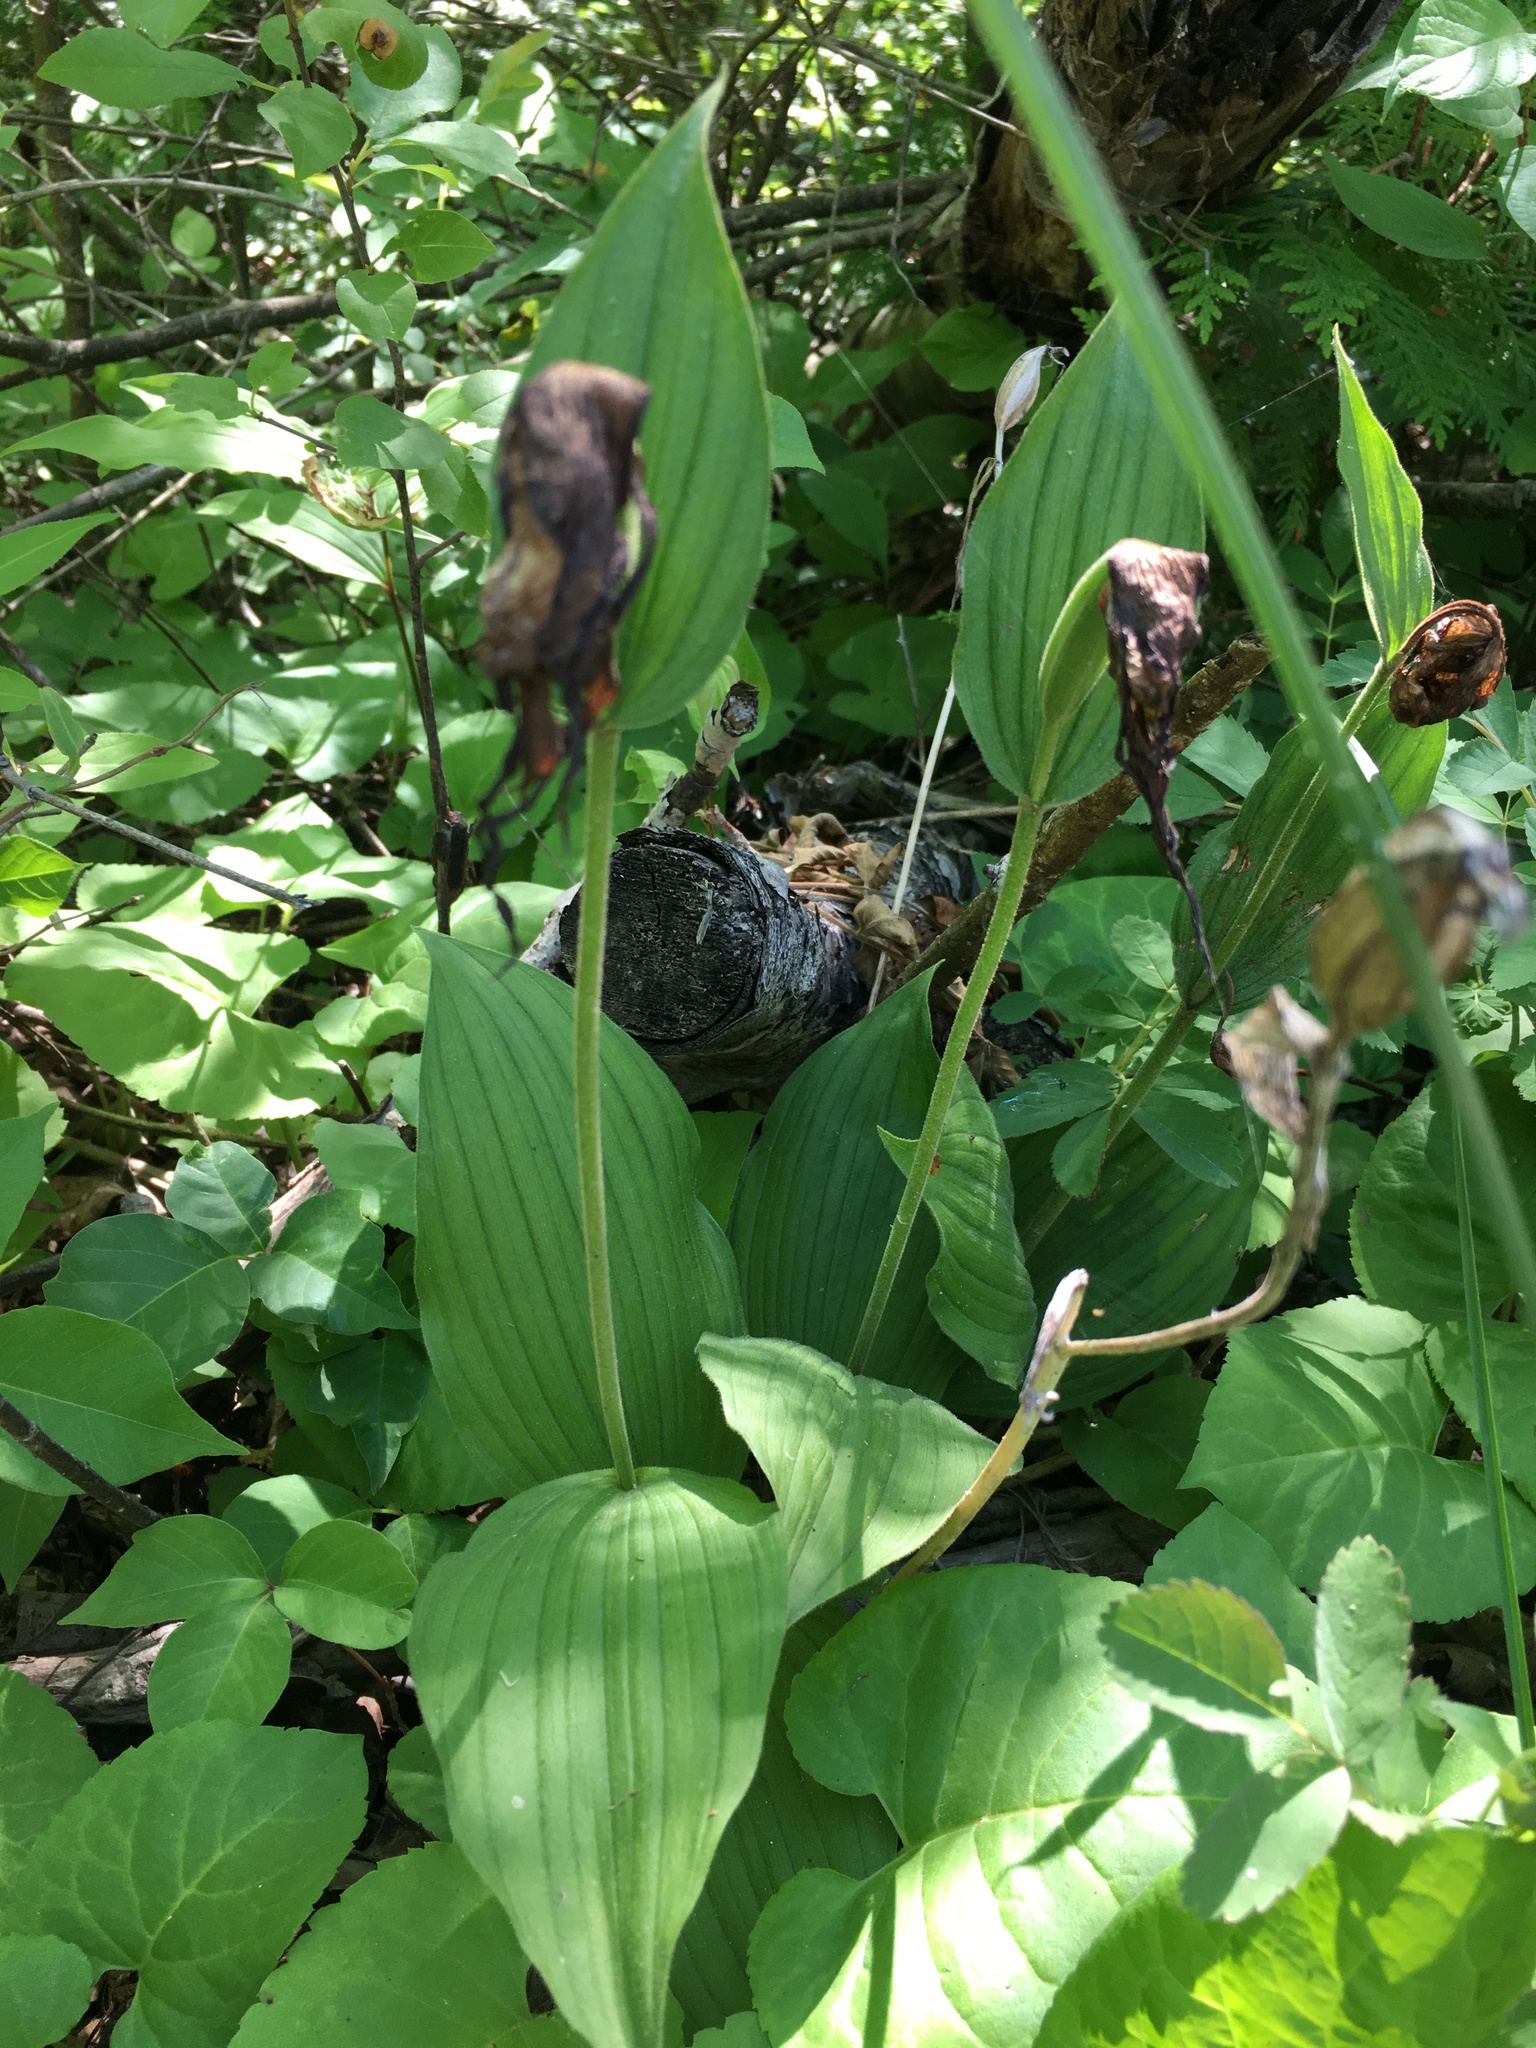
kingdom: Plantae
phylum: Tracheophyta
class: Liliopsida
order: Asparagales
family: Orchidaceae
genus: Cypripedium
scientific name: Cypripedium parviflorum
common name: American yellow lady's-slipper
